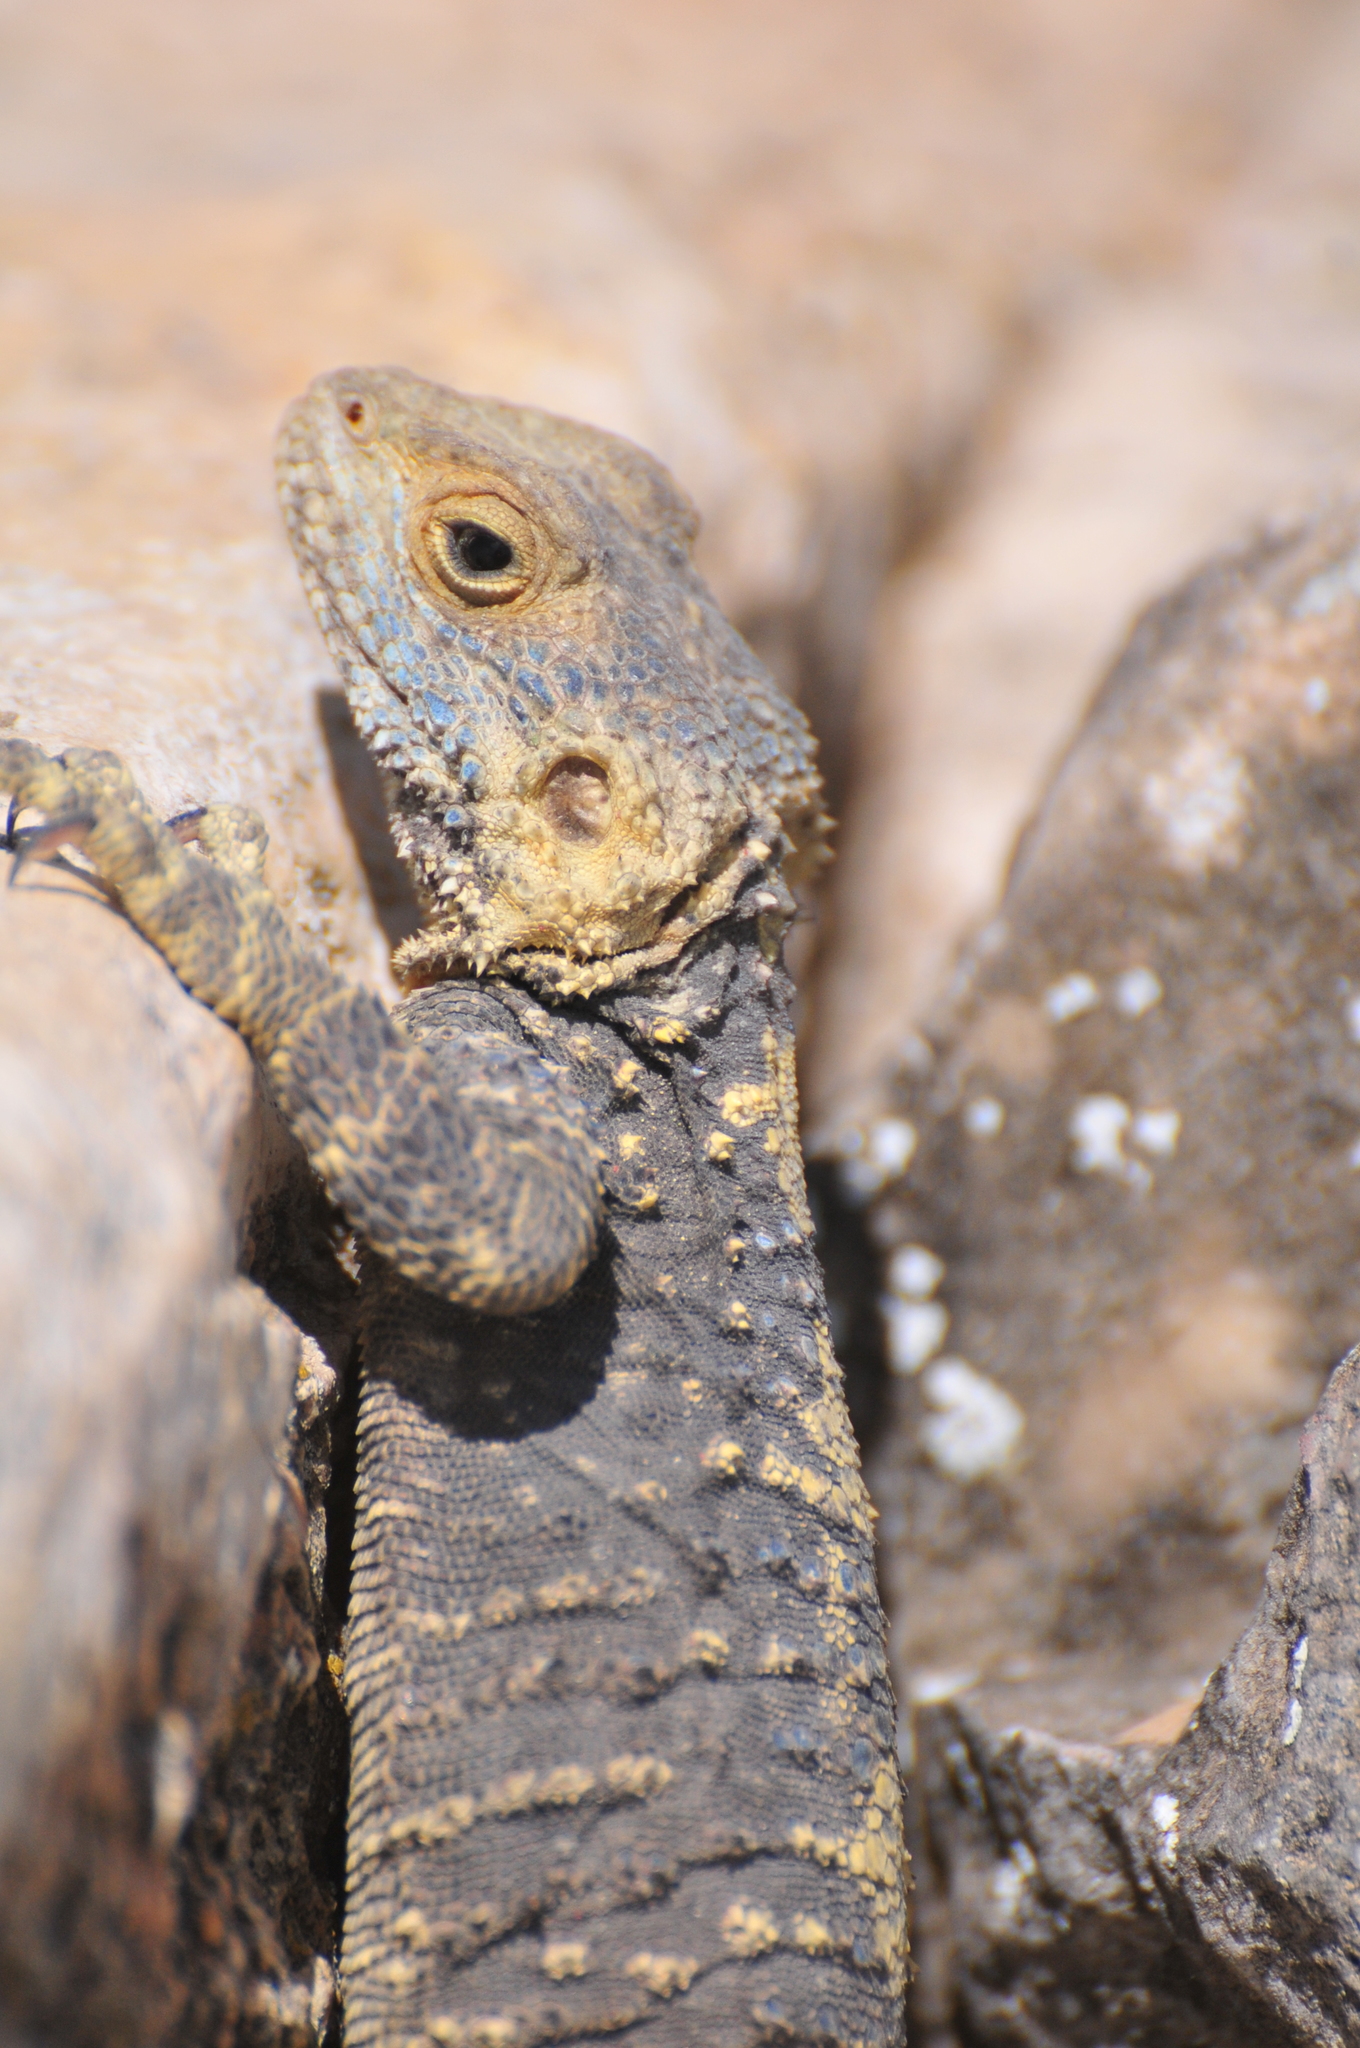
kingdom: Animalia
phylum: Chordata
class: Squamata
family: Agamidae
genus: Stellagama
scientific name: Stellagama stellio
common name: Starred agama
